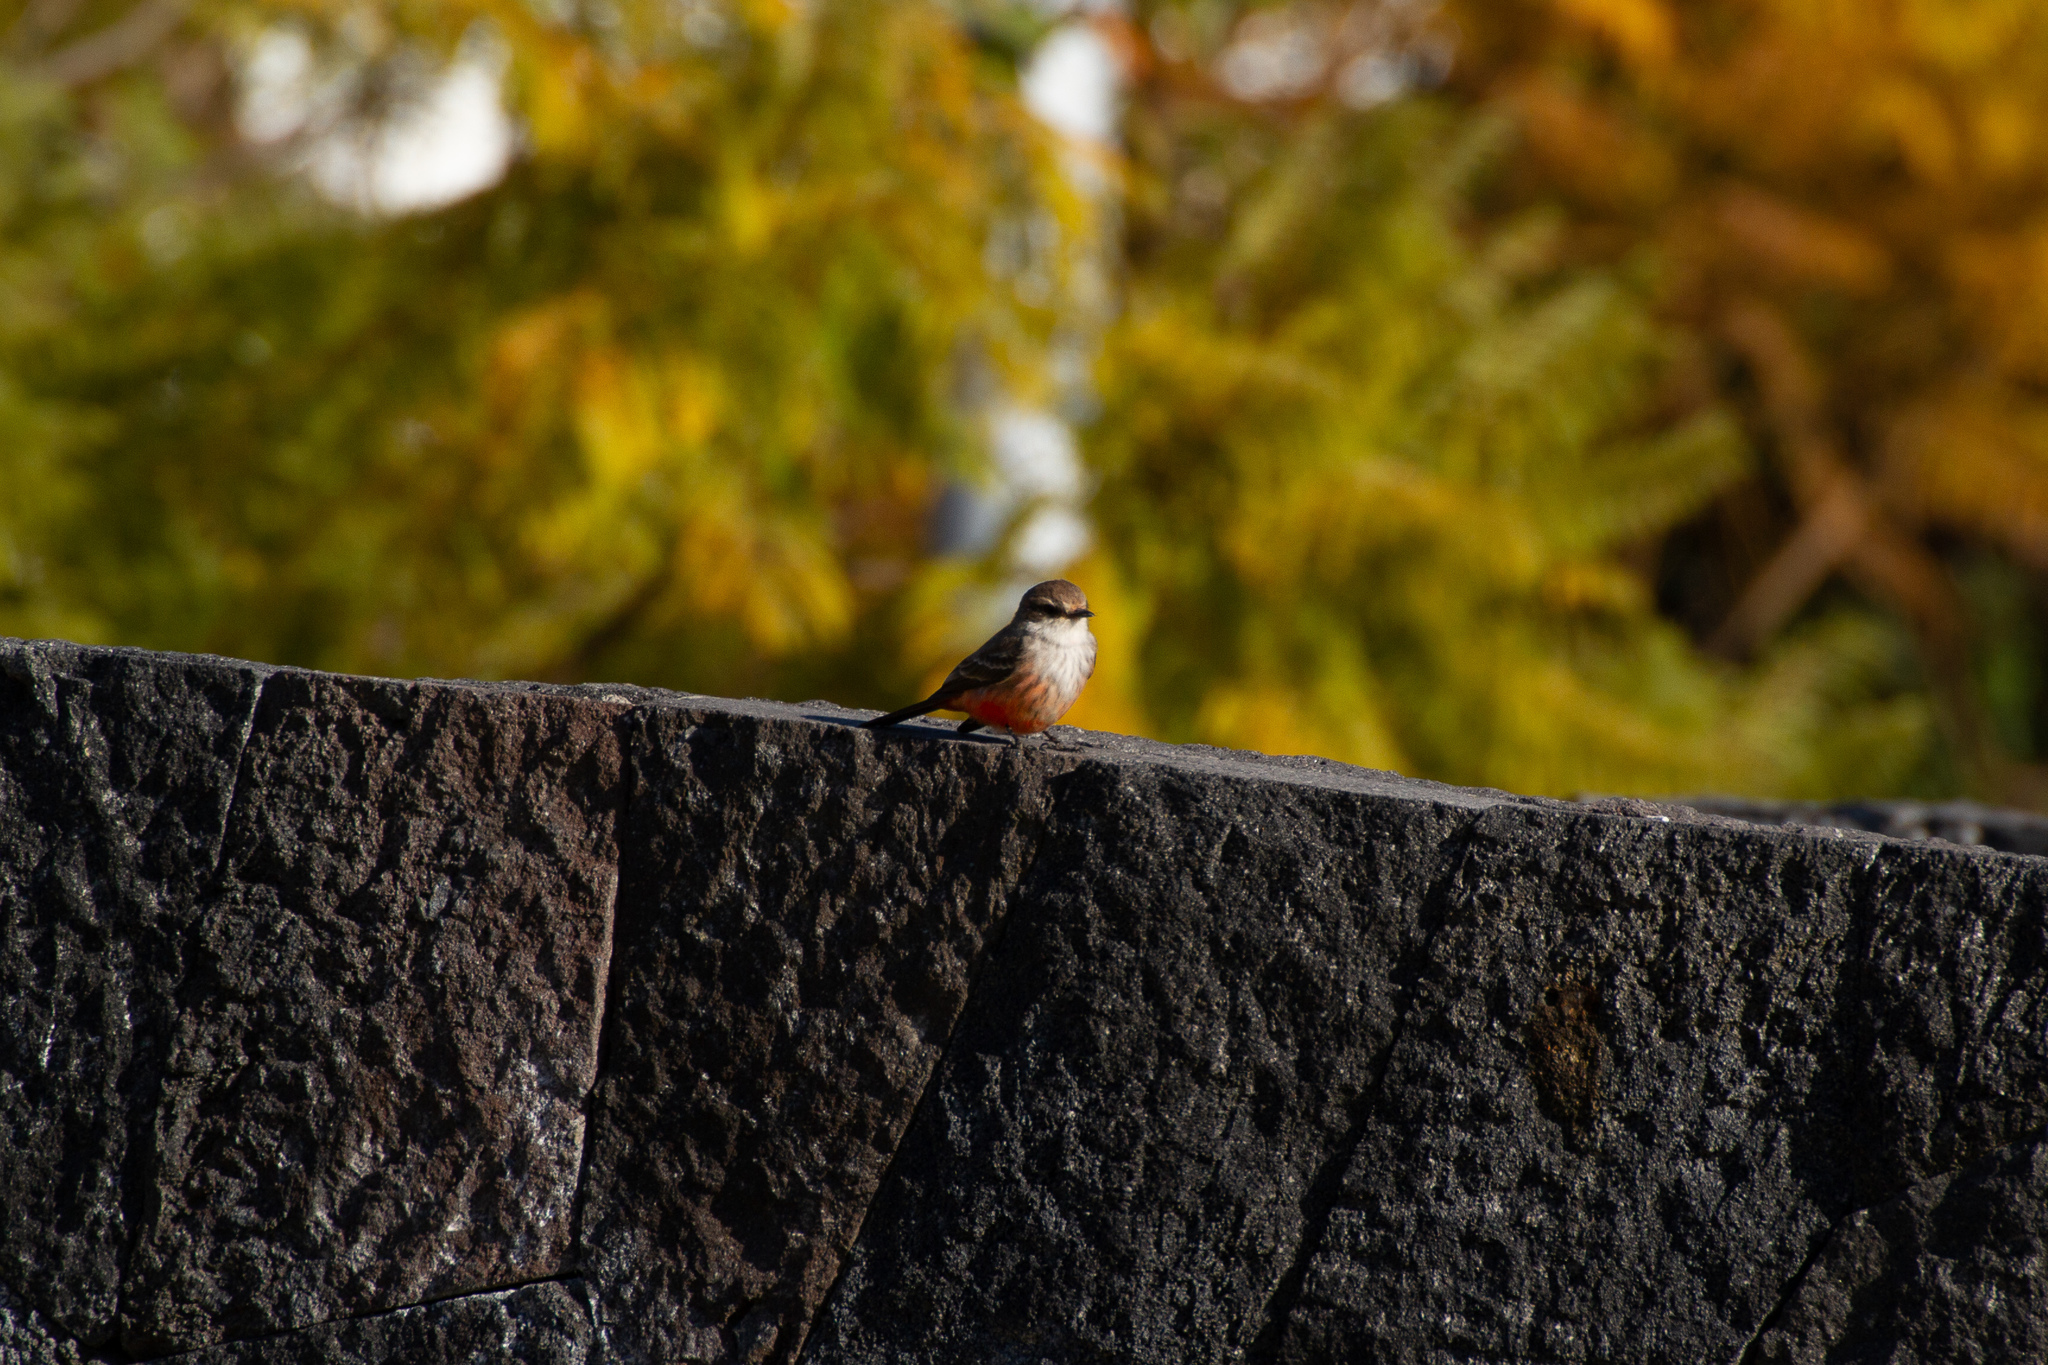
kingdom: Animalia
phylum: Chordata
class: Aves
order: Passeriformes
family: Tyrannidae
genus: Pyrocephalus
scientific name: Pyrocephalus rubinus
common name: Vermilion flycatcher
